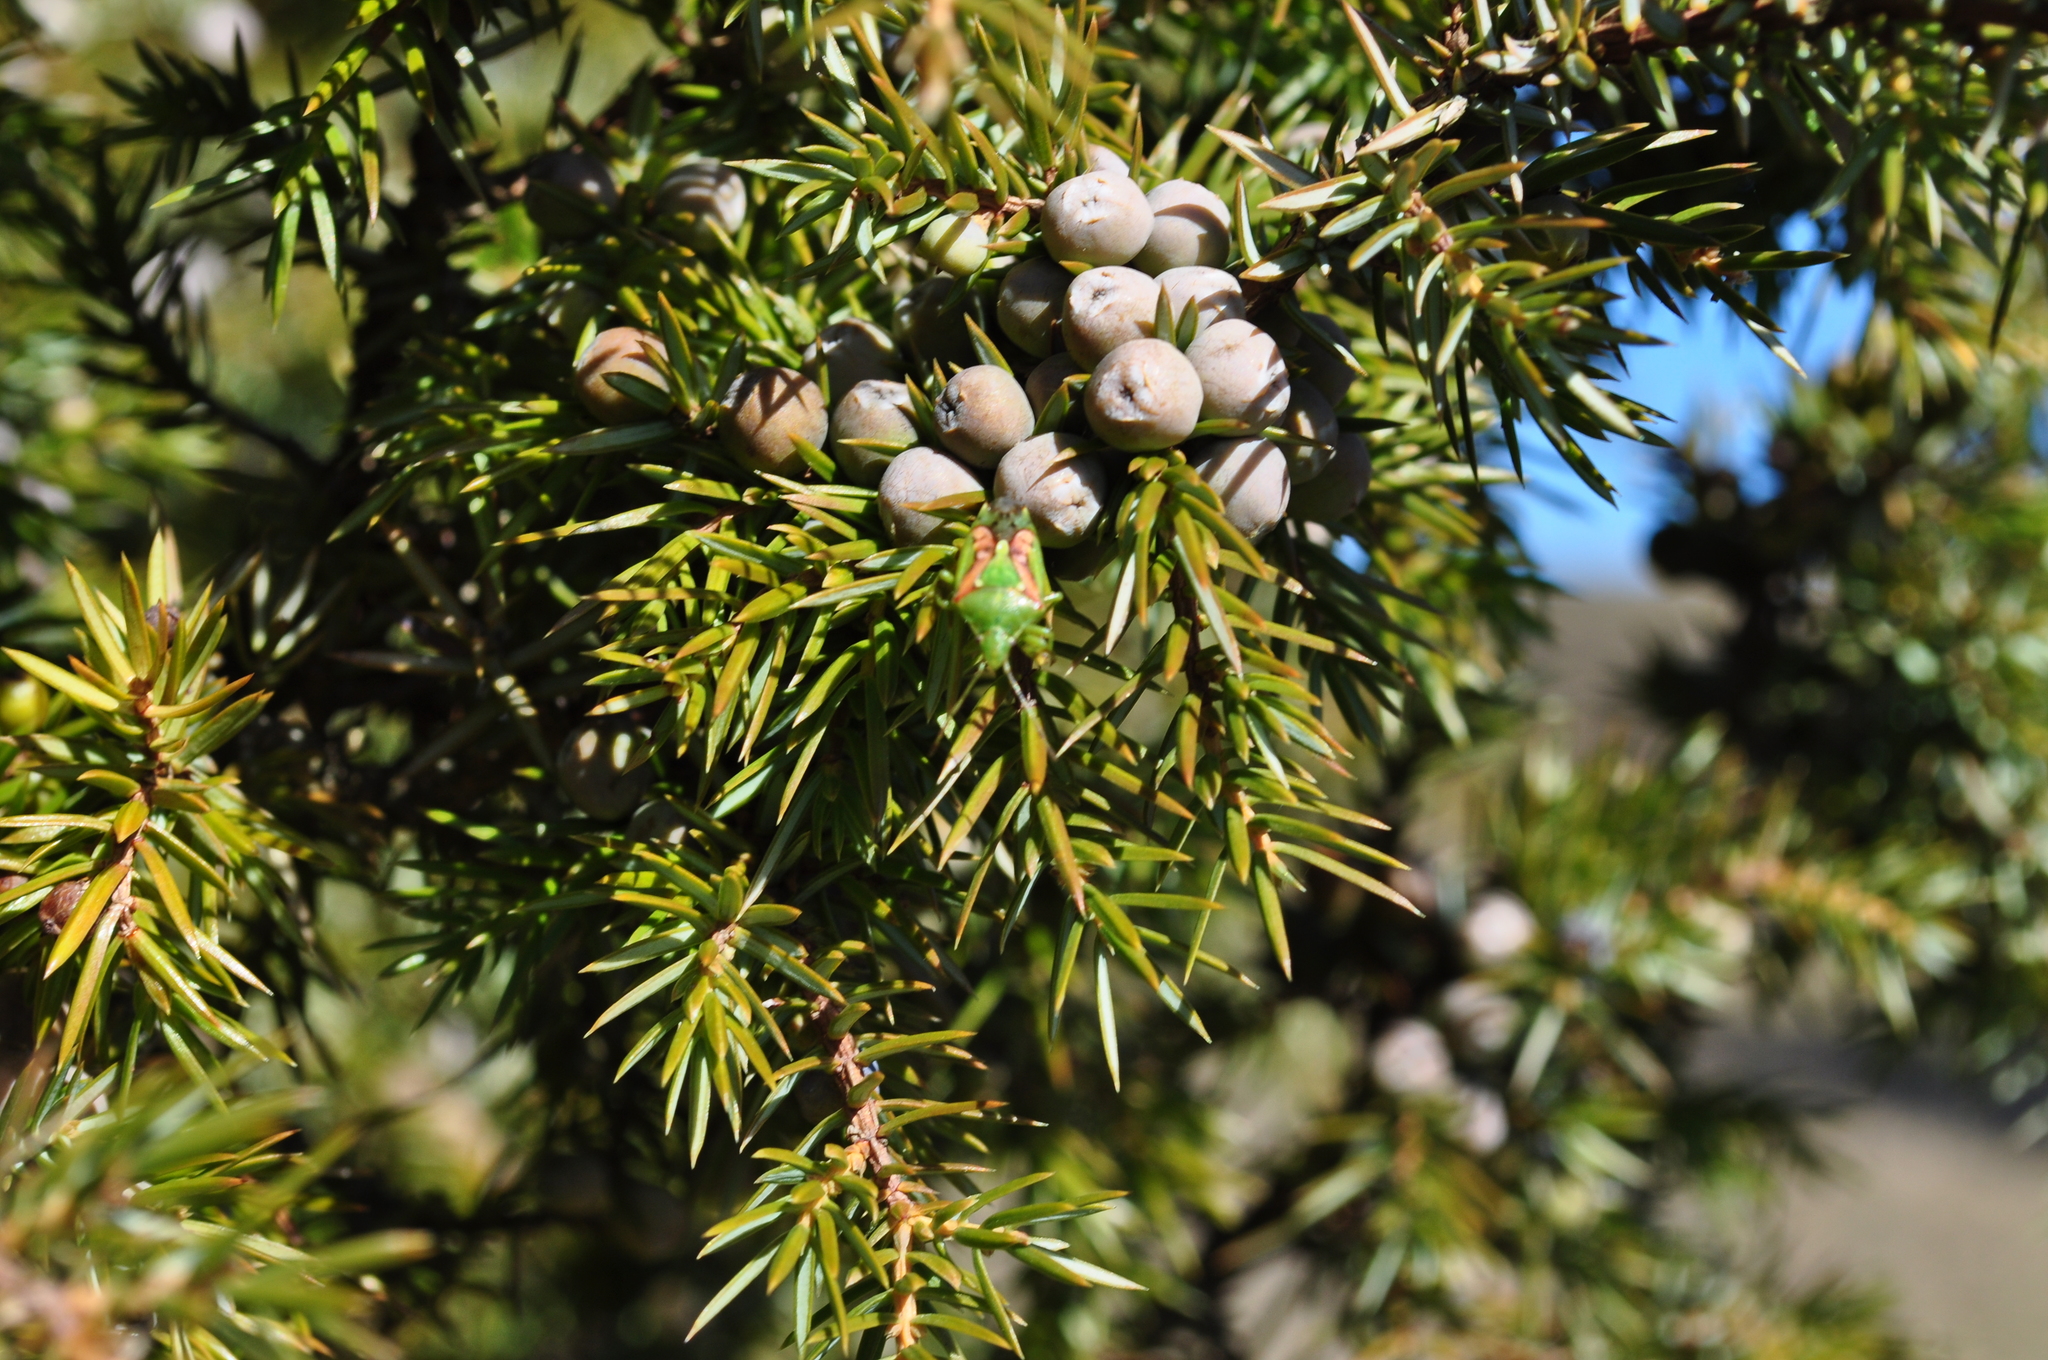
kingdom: Animalia
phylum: Arthropoda
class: Insecta
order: Hemiptera
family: Acanthosomatidae
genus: Cyphostethus
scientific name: Cyphostethus tristriatus
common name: Juniper shieldbug
